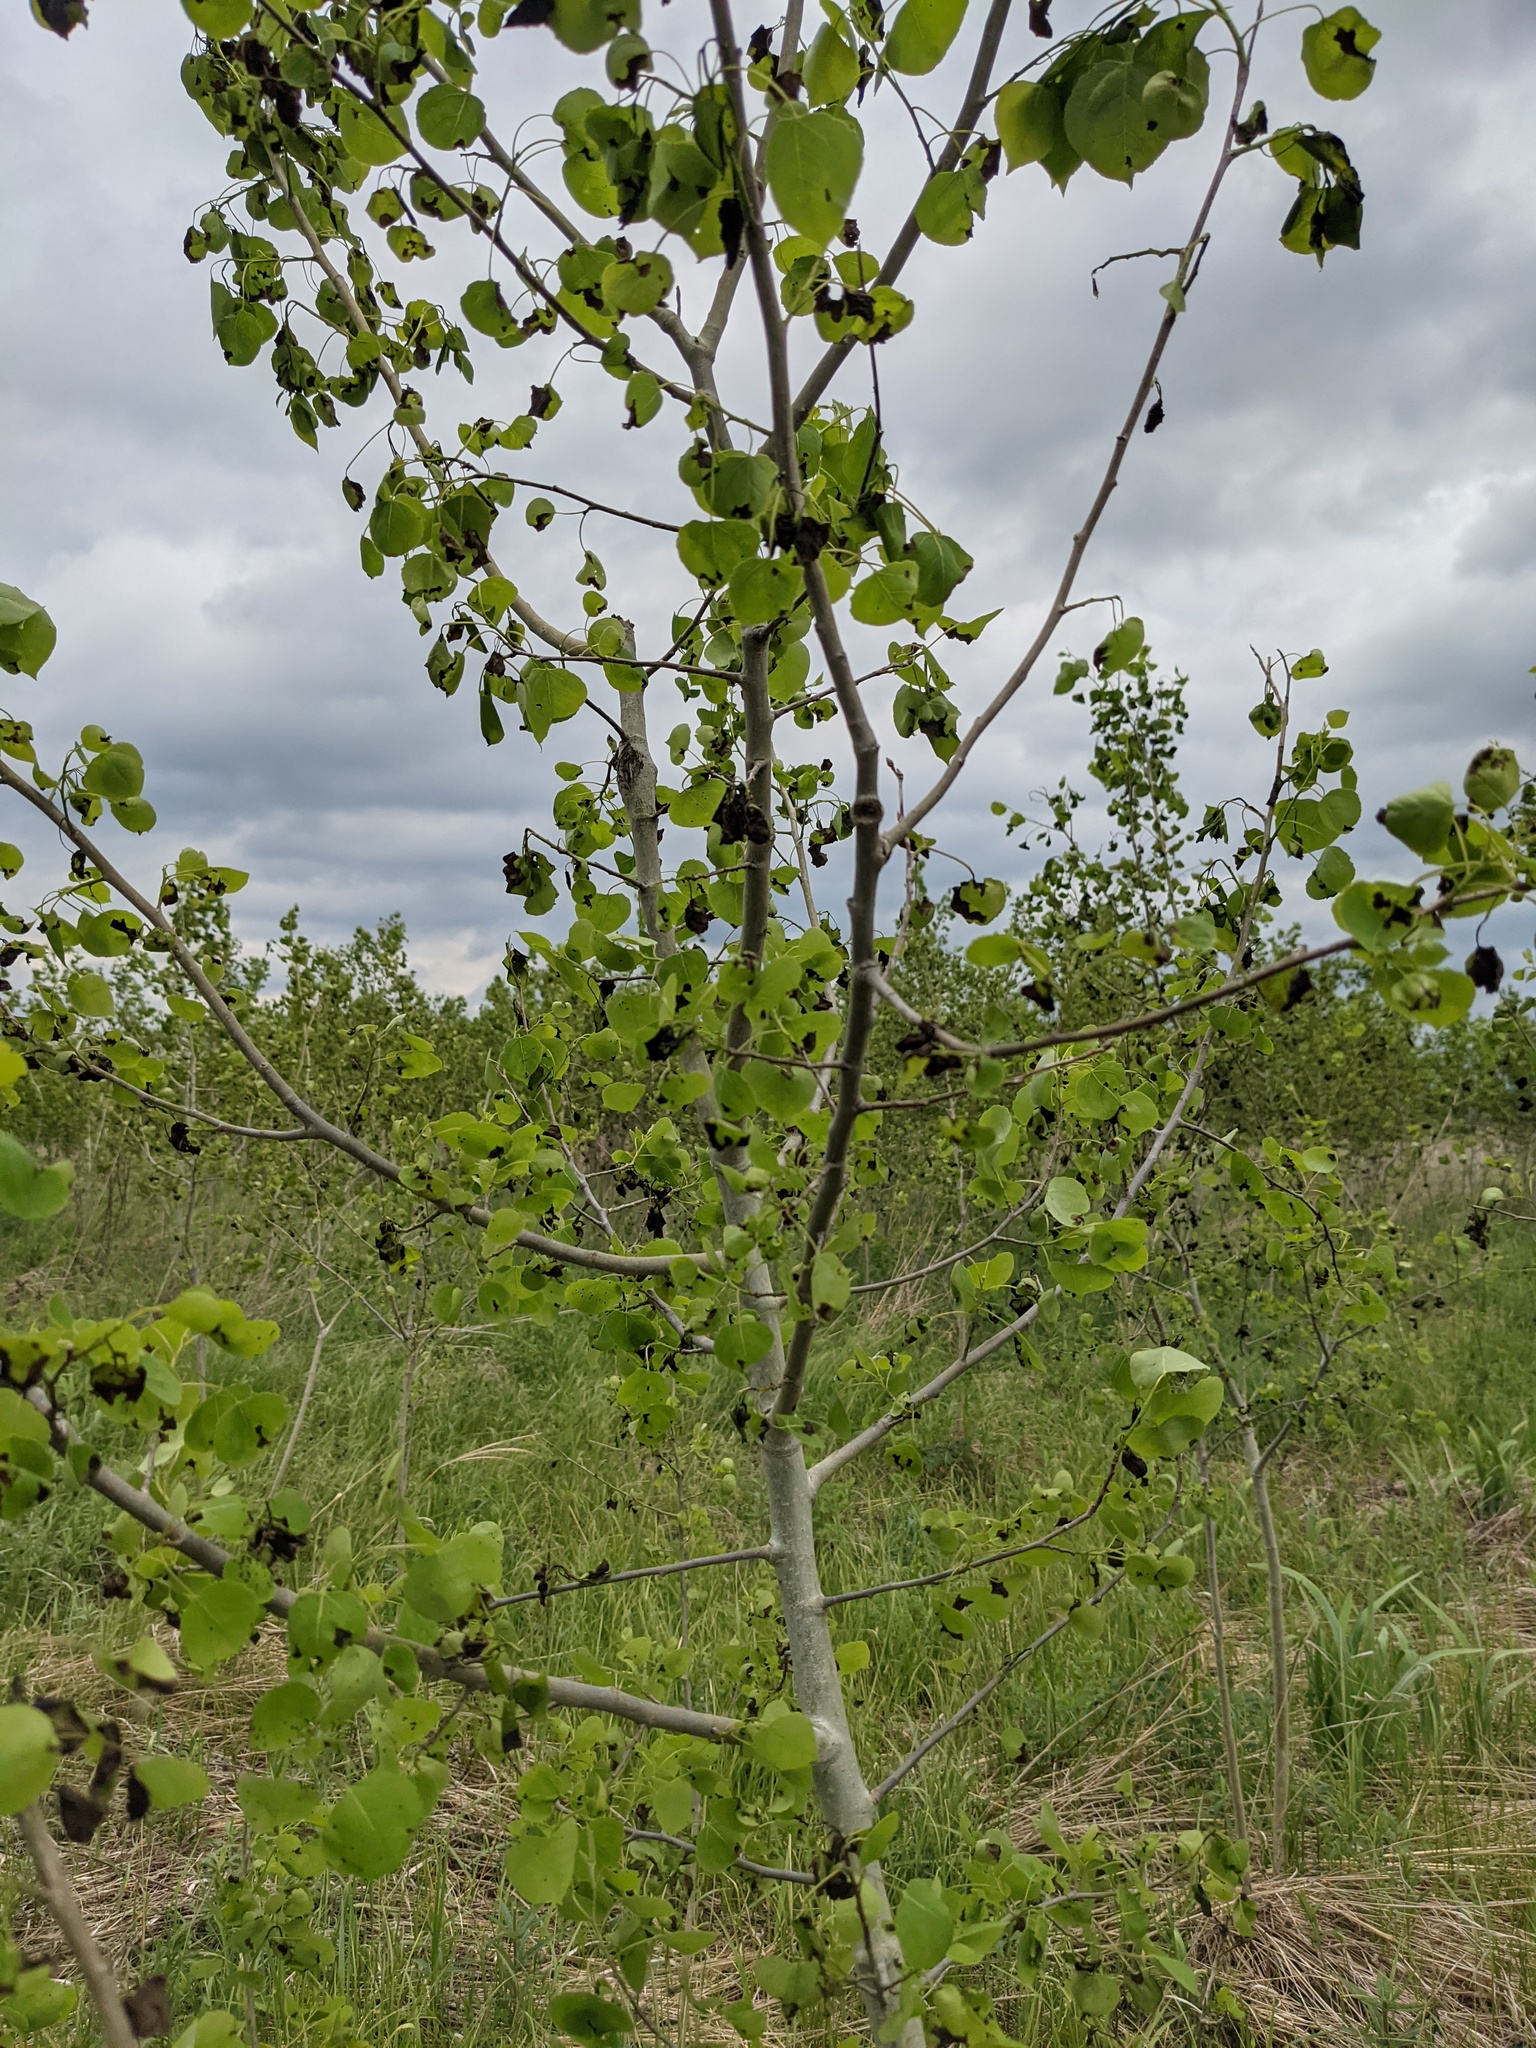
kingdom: Plantae
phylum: Tracheophyta
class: Magnoliopsida
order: Malpighiales
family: Salicaceae
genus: Populus
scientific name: Populus tremuloides
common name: Quaking aspen
